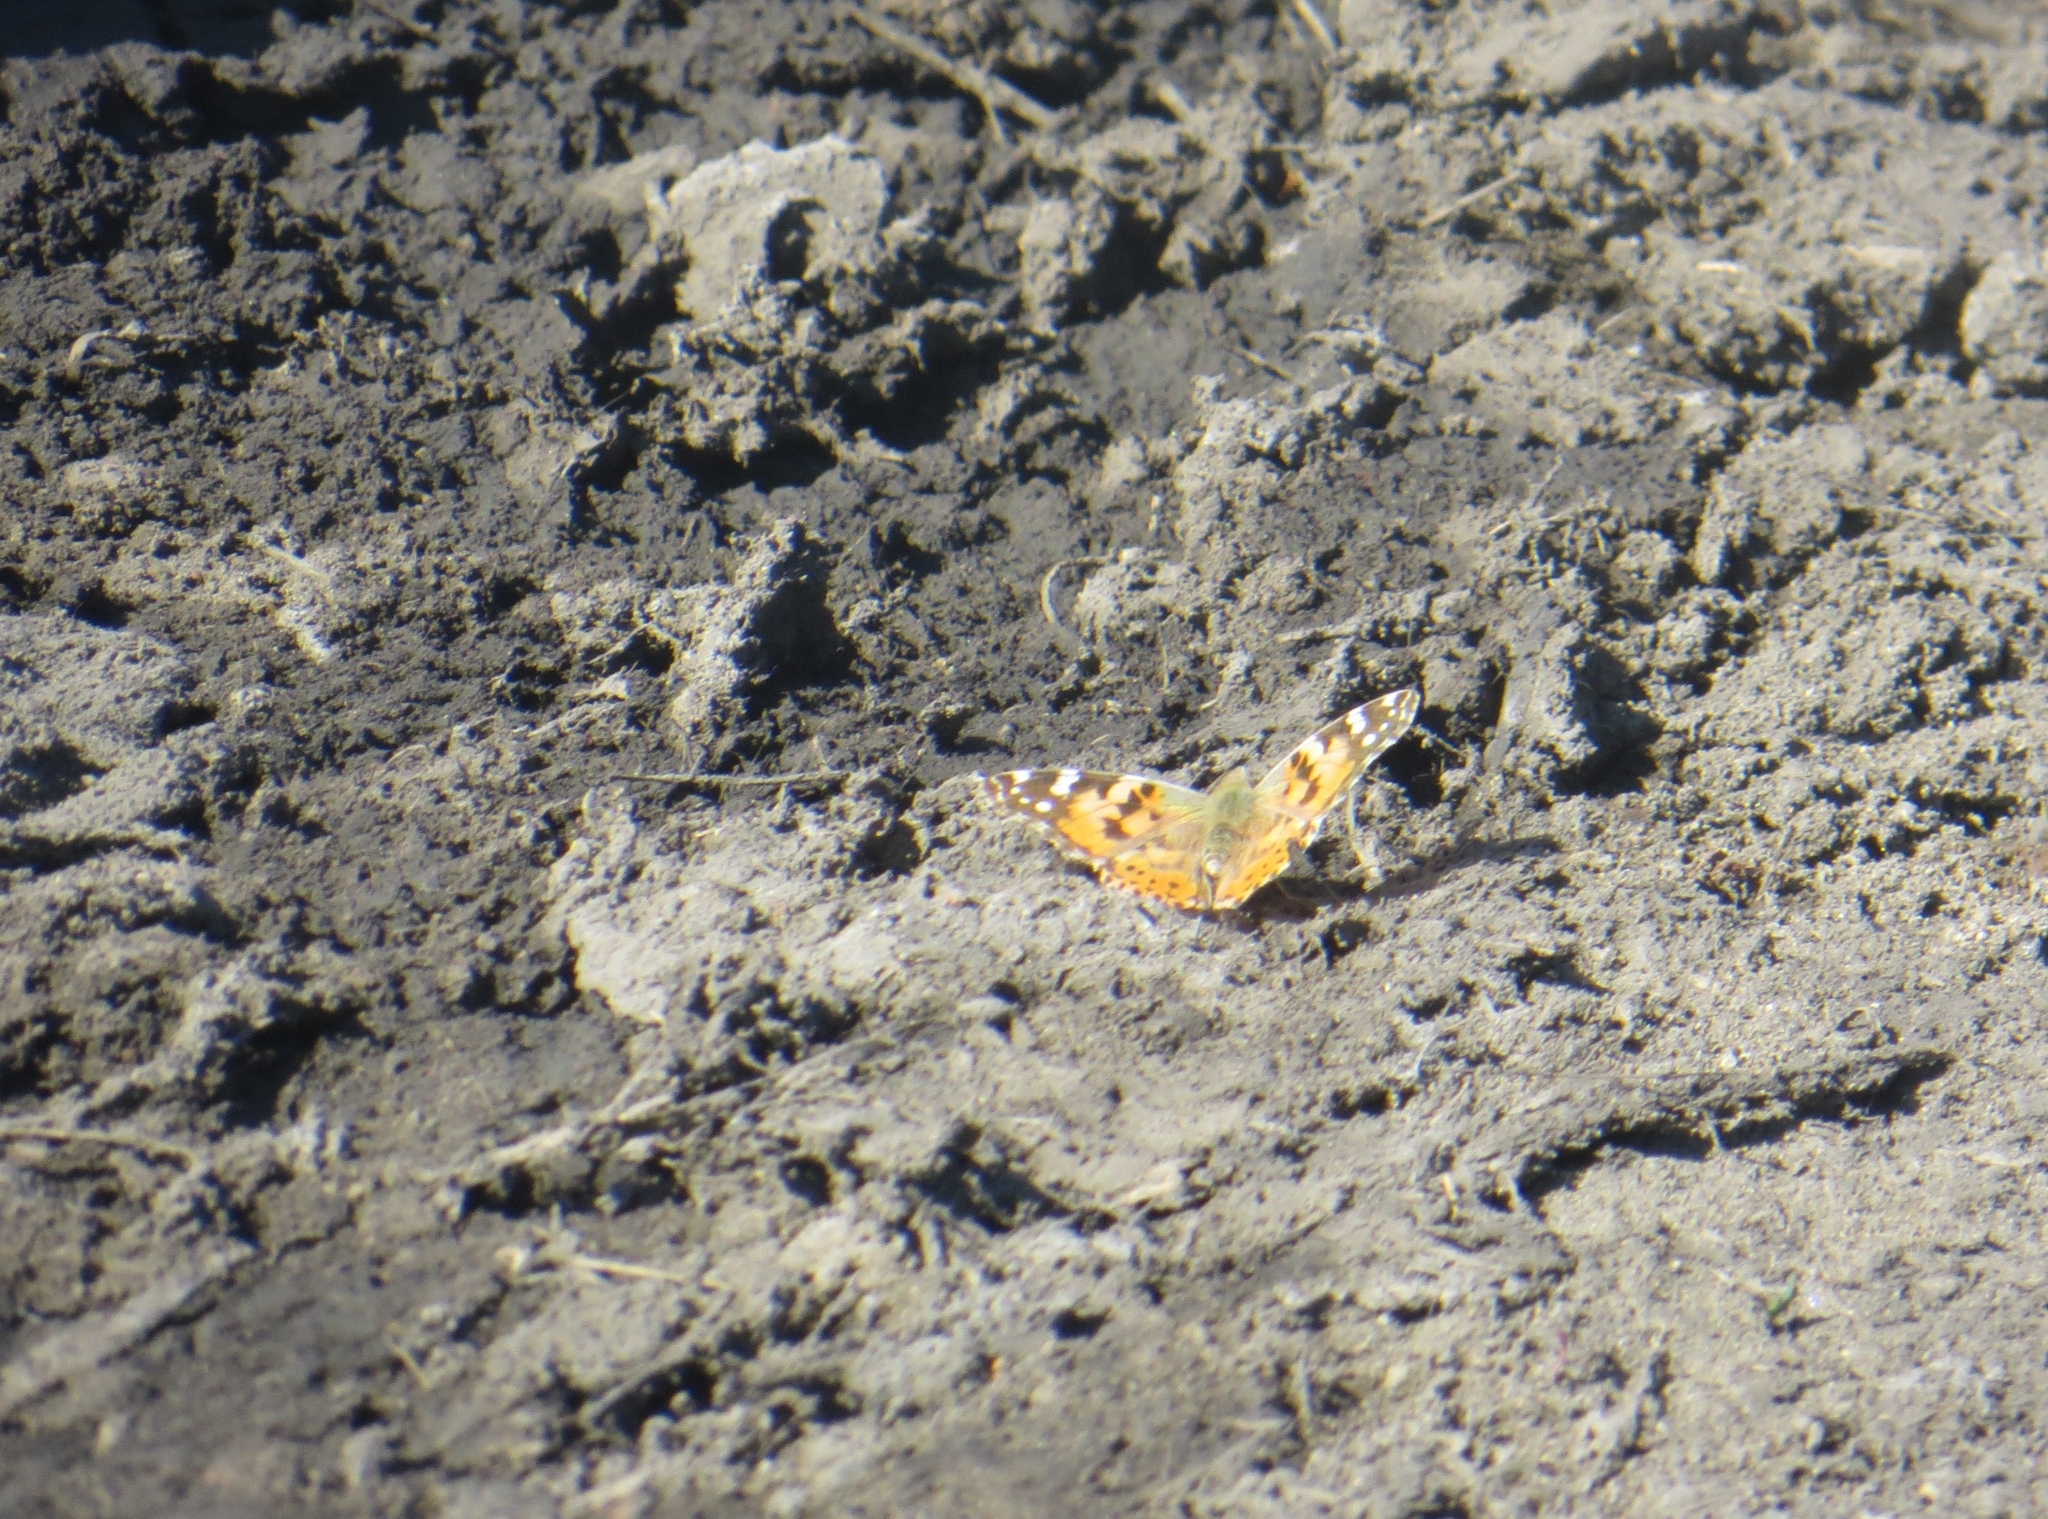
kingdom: Animalia
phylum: Arthropoda
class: Insecta
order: Lepidoptera
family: Nymphalidae
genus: Vanessa
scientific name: Vanessa cardui
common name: Painted lady
